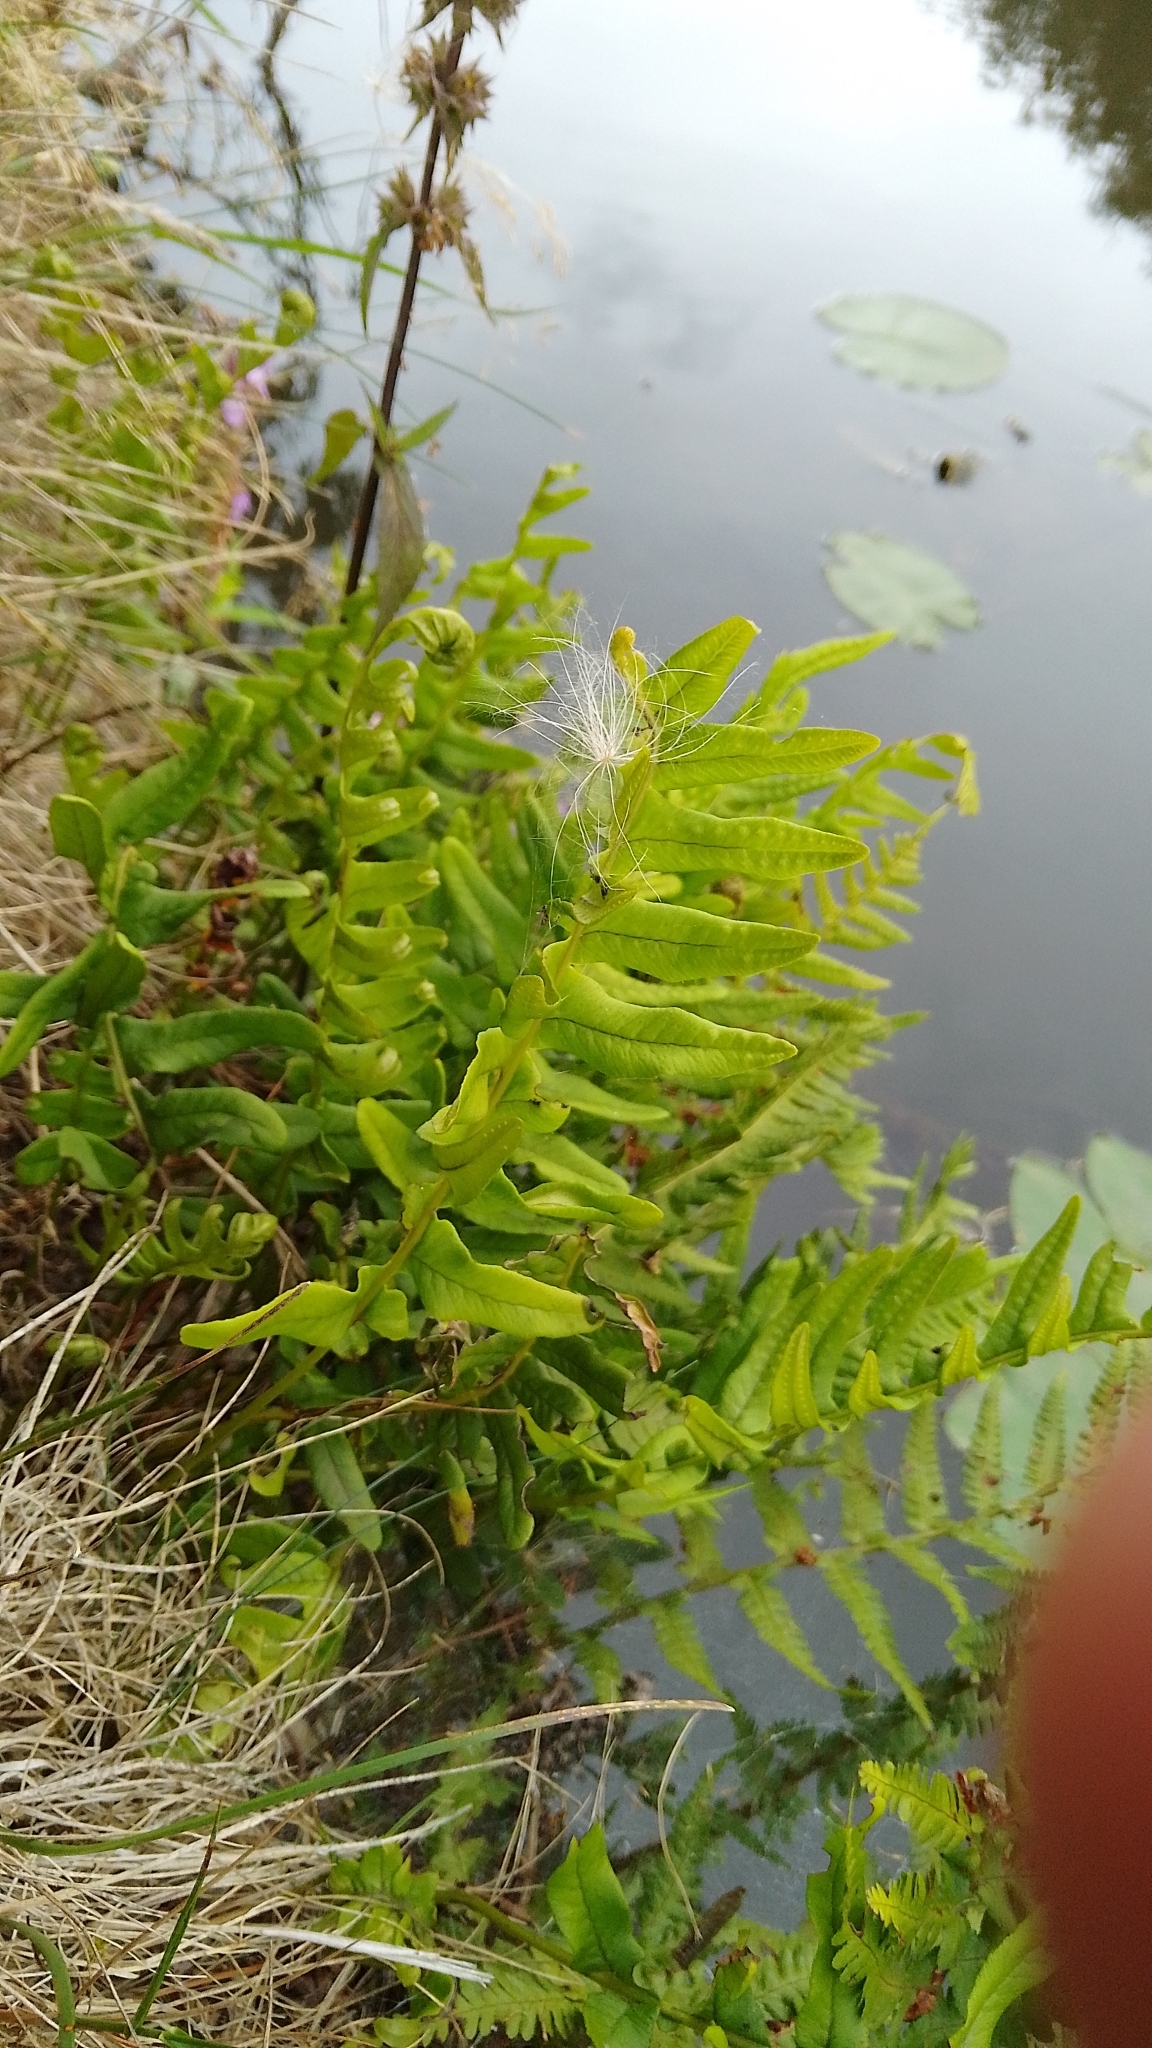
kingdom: Plantae
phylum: Tracheophyta
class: Polypodiopsida
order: Polypodiales
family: Polypodiaceae
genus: Polypodium
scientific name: Polypodium vulgare
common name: Common polypody
